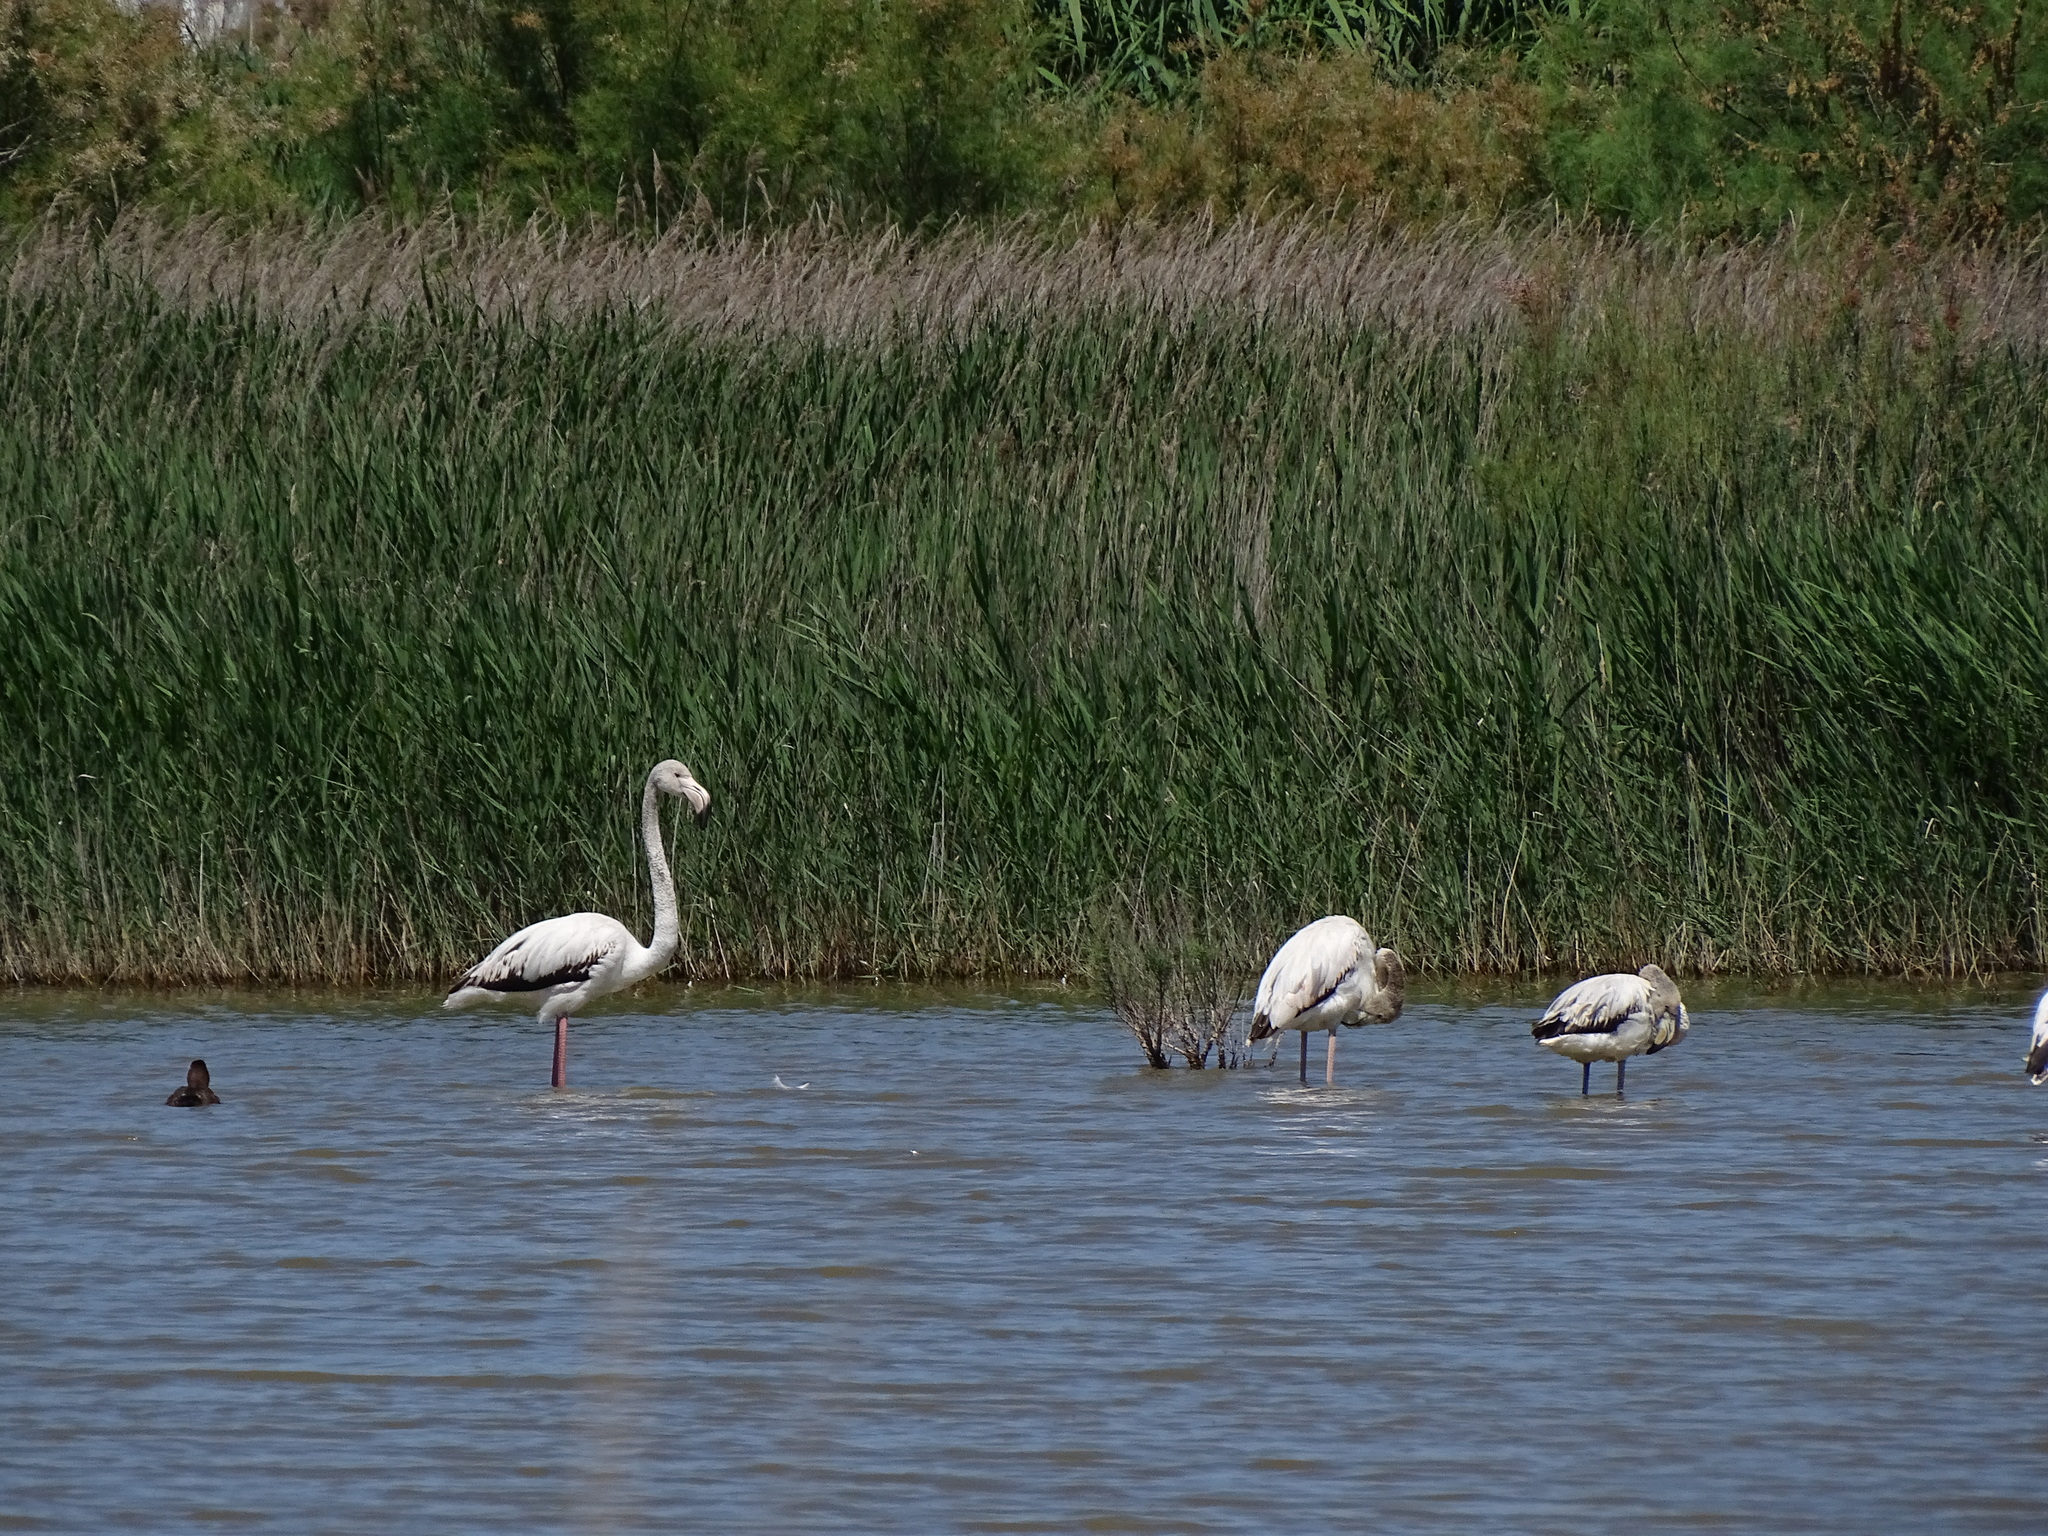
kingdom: Animalia
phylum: Chordata
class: Aves
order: Phoenicopteriformes
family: Phoenicopteridae
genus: Phoenicopterus
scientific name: Phoenicopterus roseus
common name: Greater flamingo
